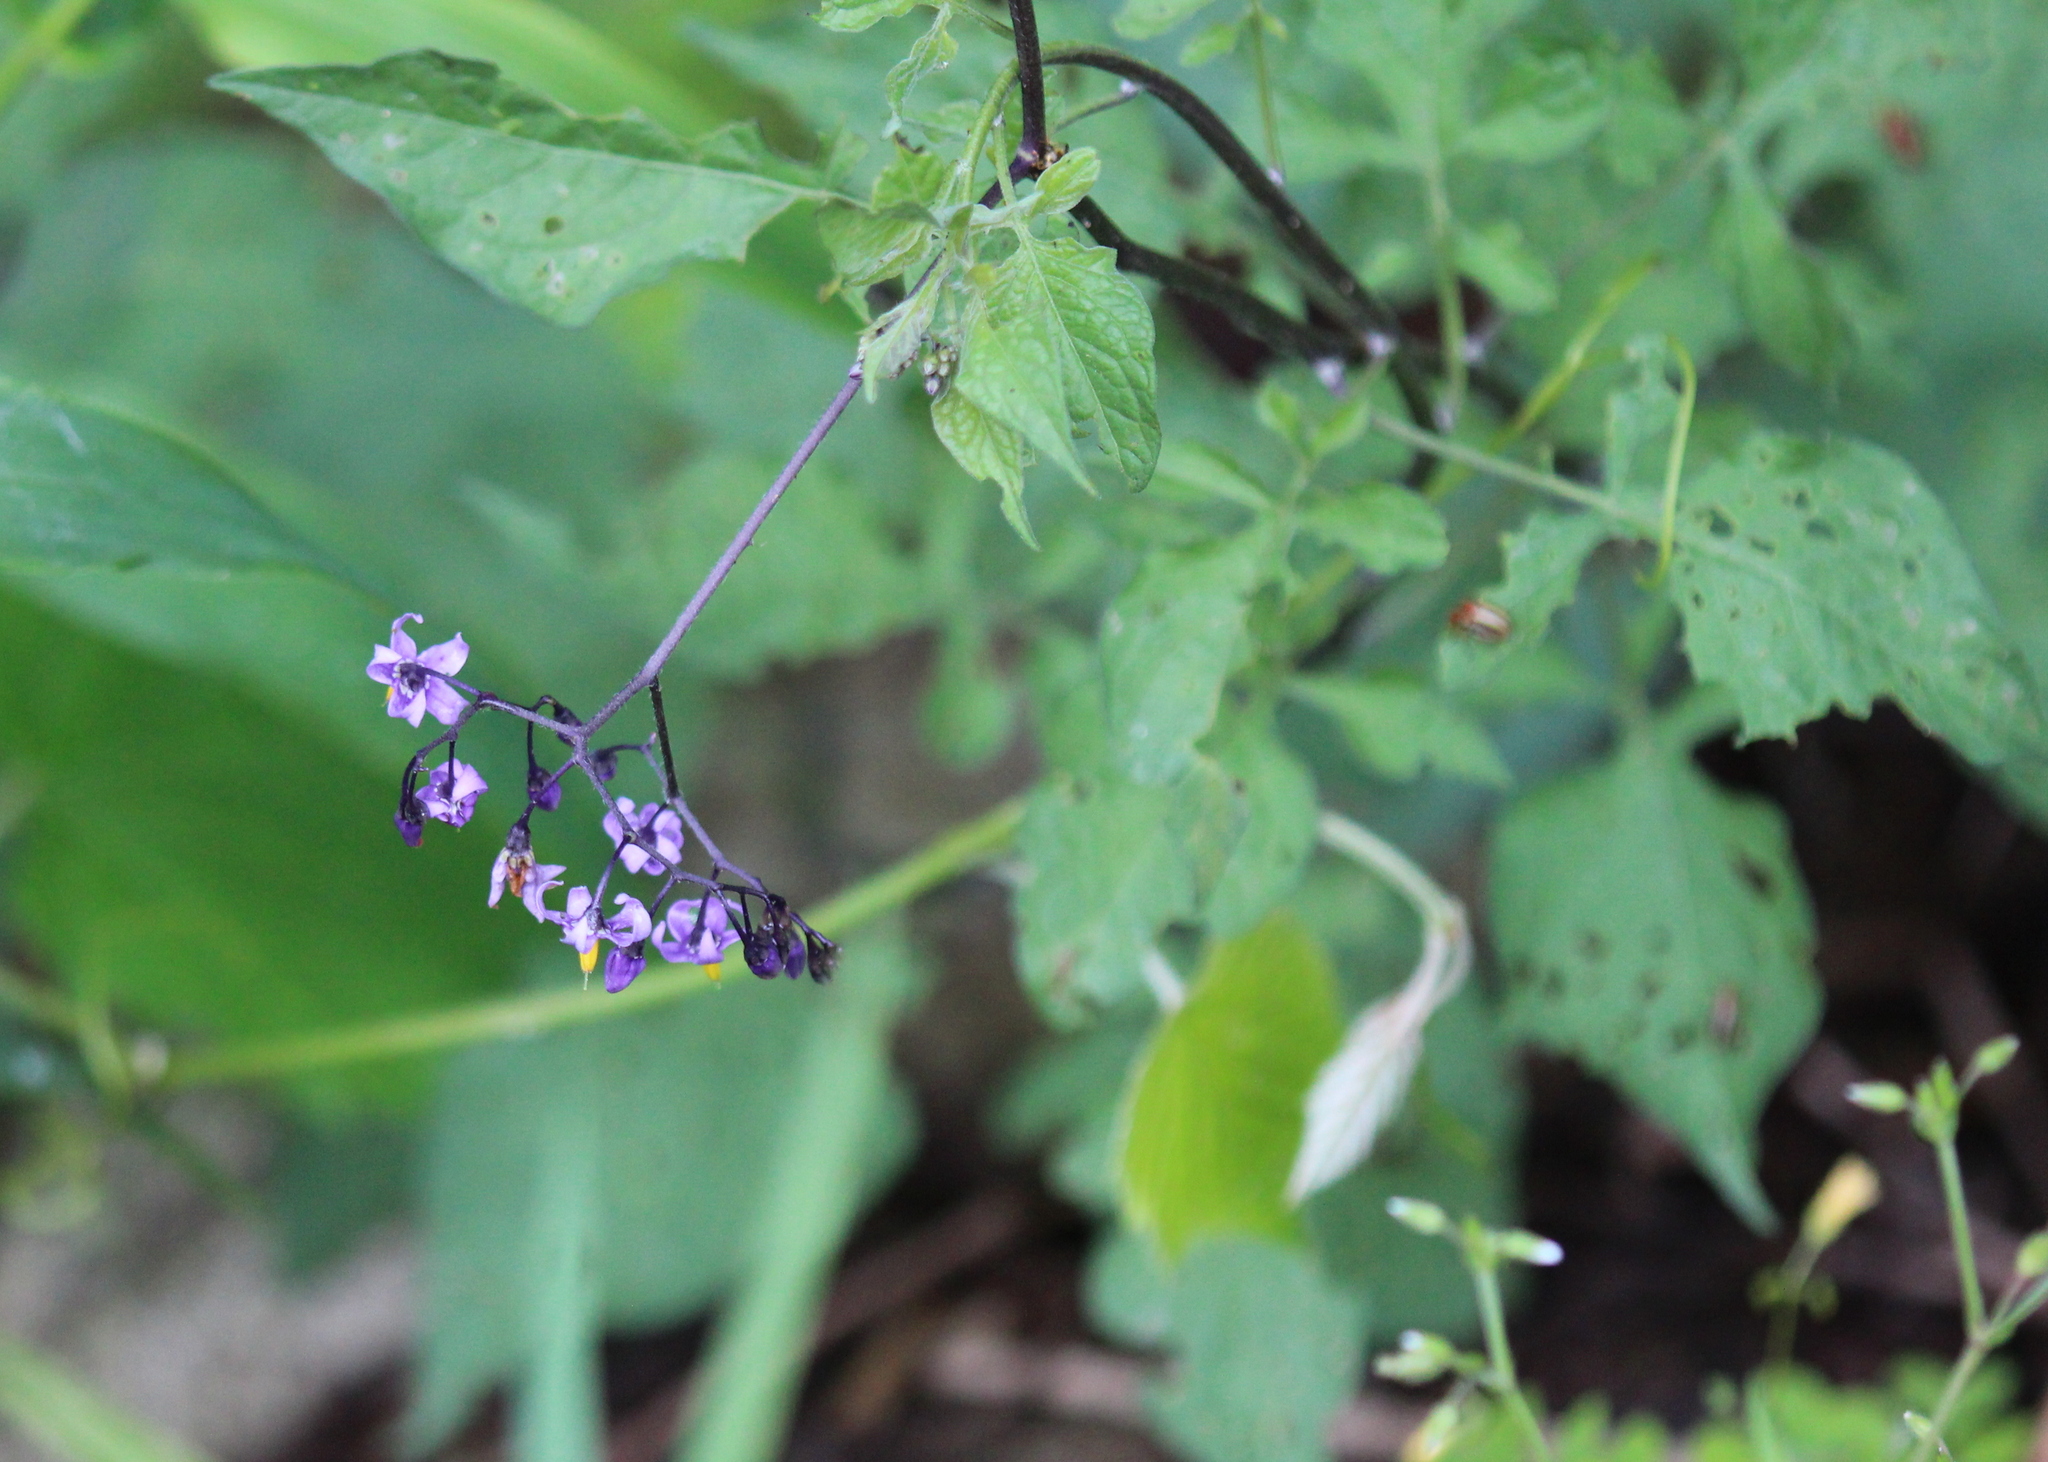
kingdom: Plantae
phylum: Tracheophyta
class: Magnoliopsida
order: Solanales
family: Solanaceae
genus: Solanum
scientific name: Solanum dulcamara
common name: Climbing nightshade
